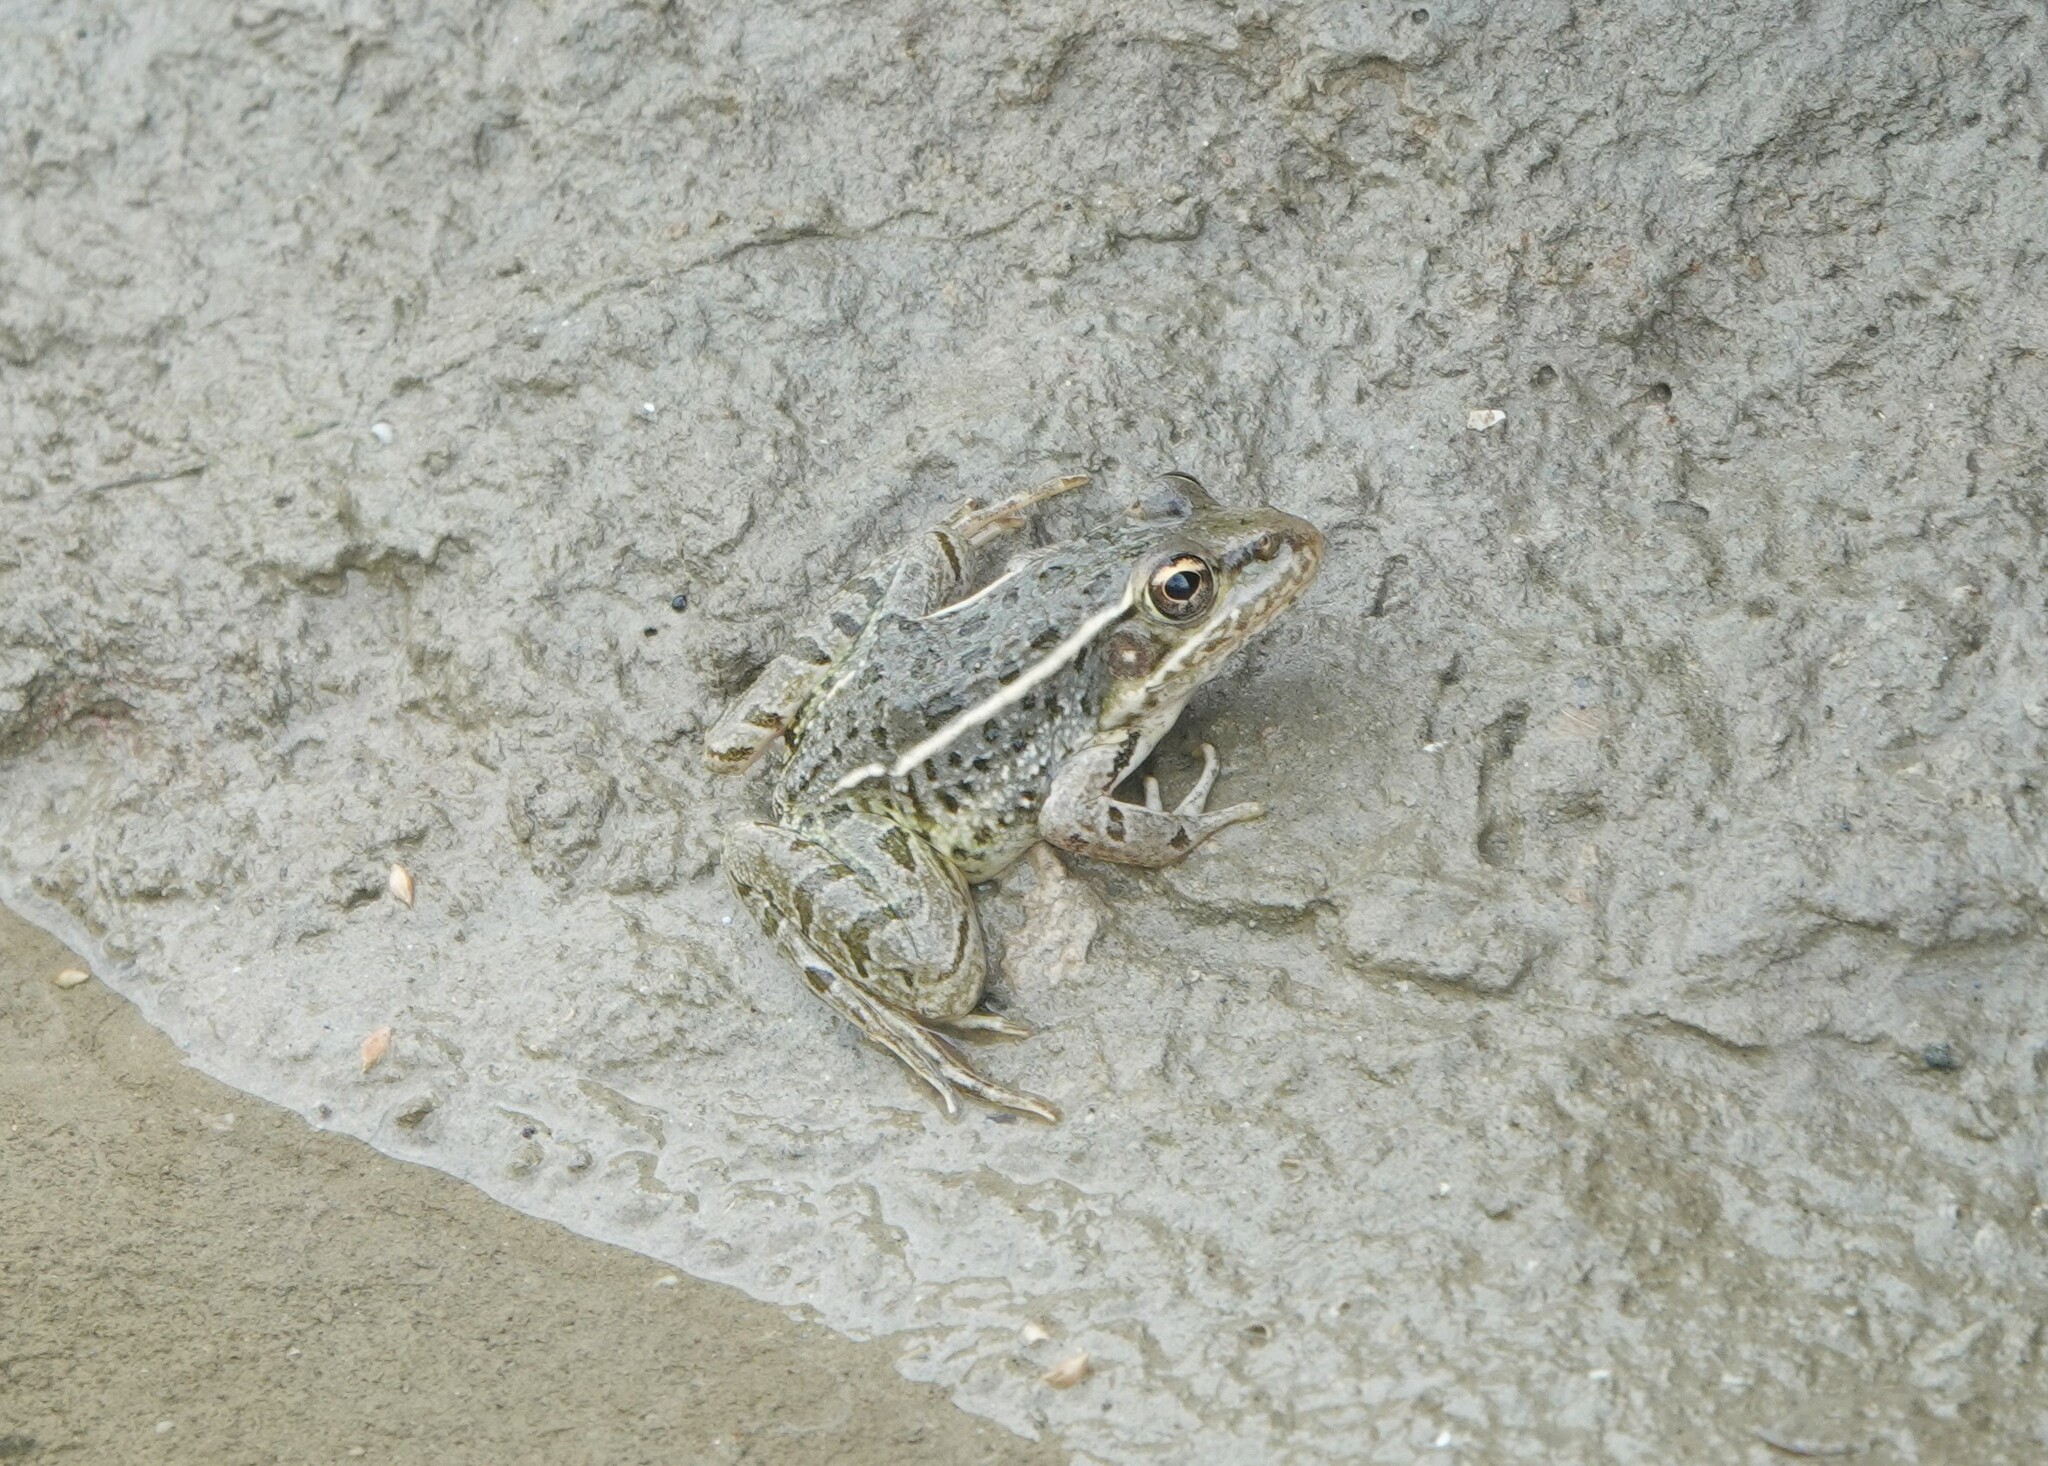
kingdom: Animalia
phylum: Chordata
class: Amphibia
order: Anura
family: Ranidae
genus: Lithobates
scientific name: Lithobates berlandieri
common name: Rio grande leopard frog
